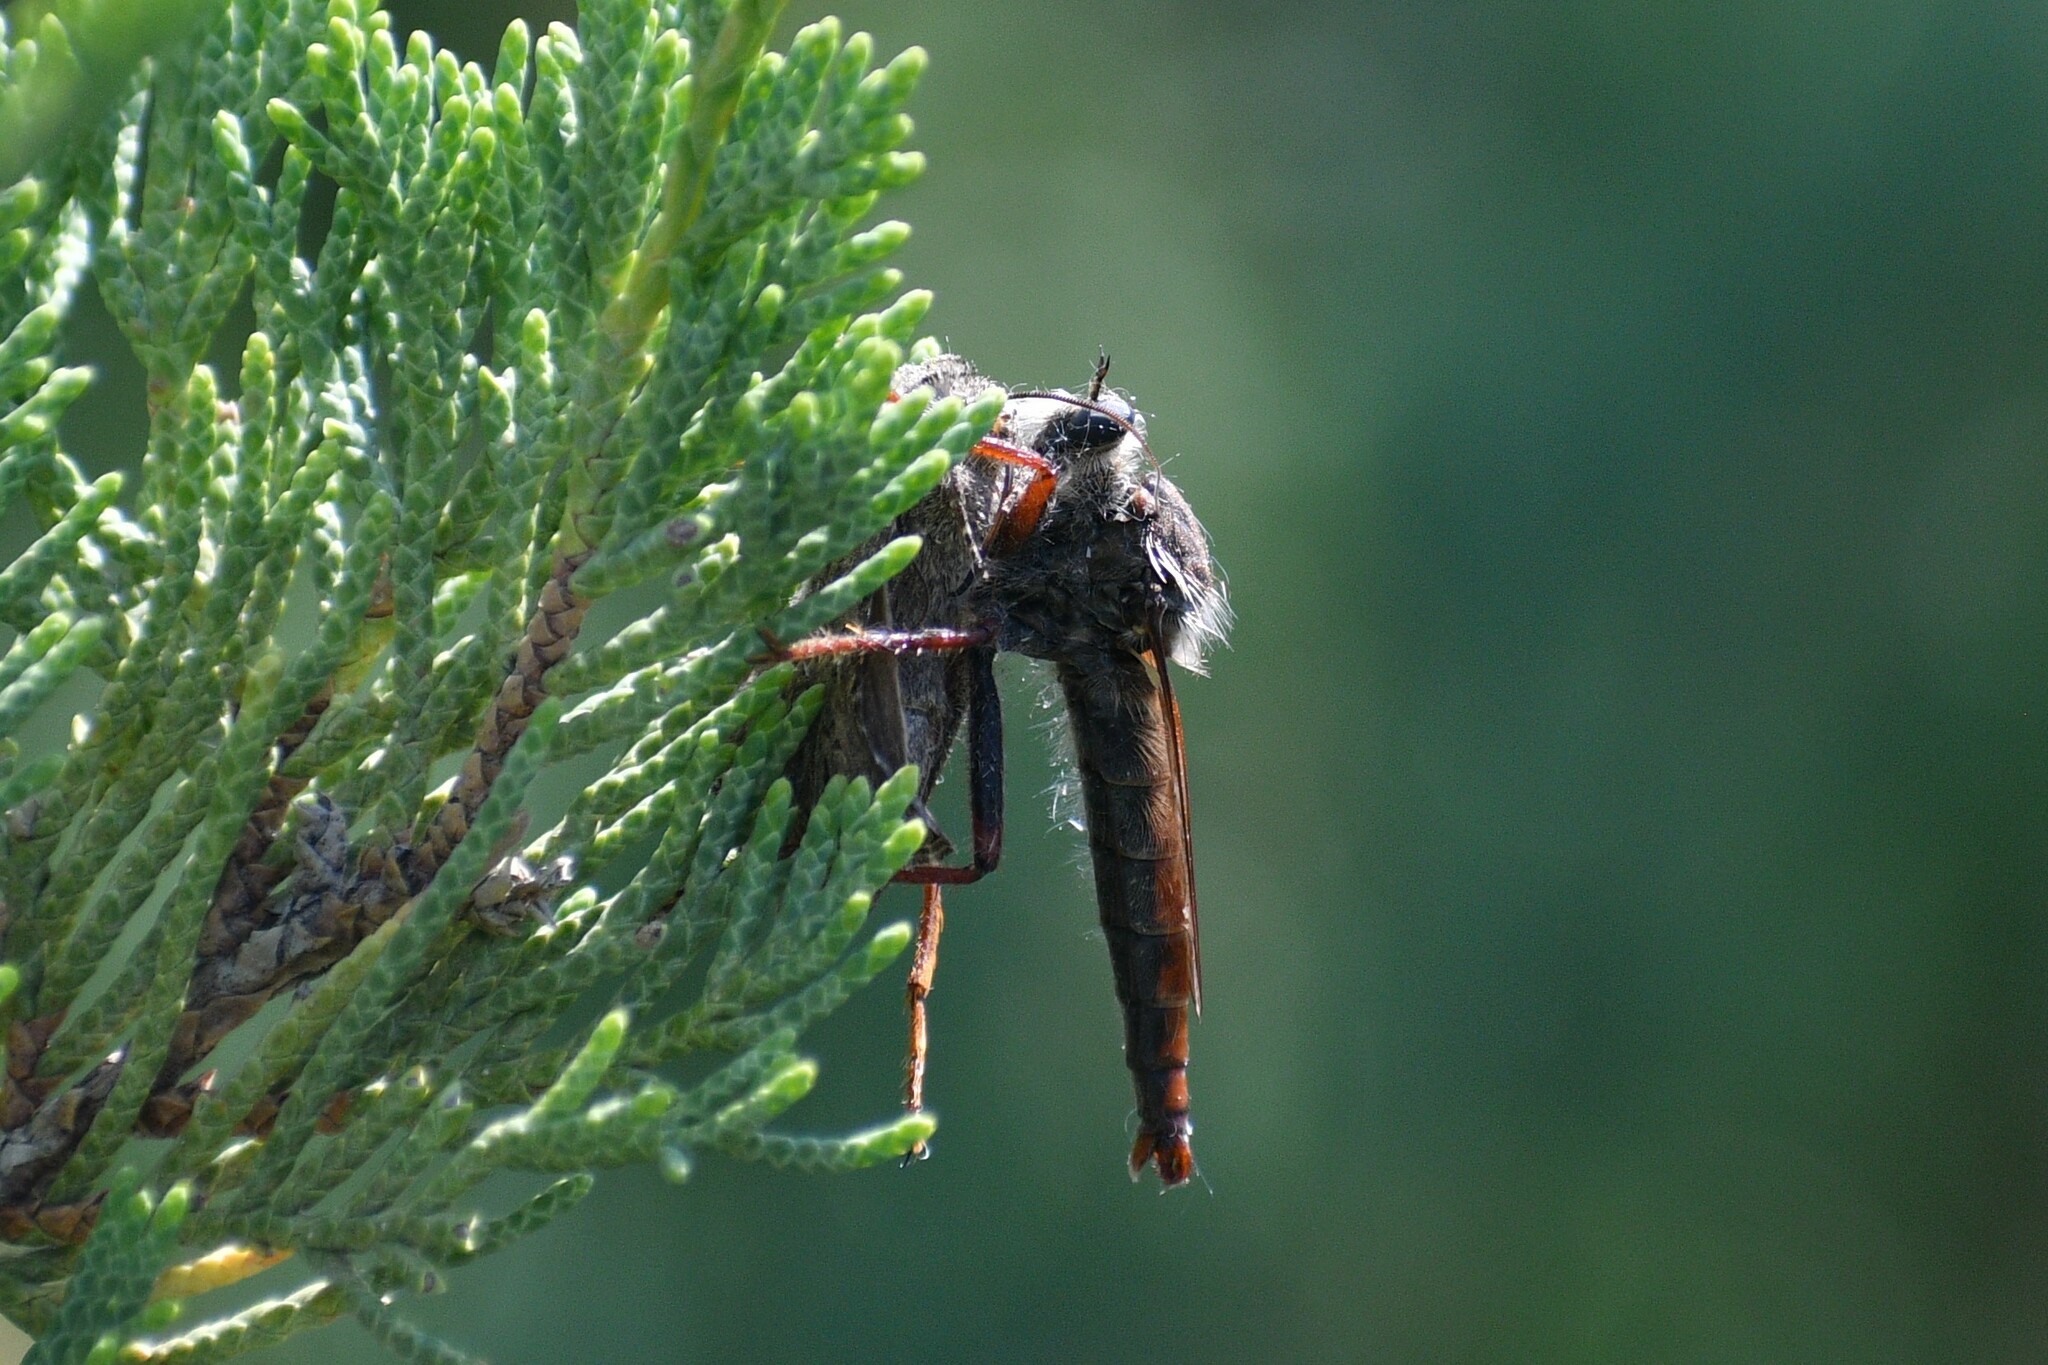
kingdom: Animalia
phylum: Arthropoda
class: Insecta
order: Diptera
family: Asilidae
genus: Stenopogon
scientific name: Stenopogon inquinatus
